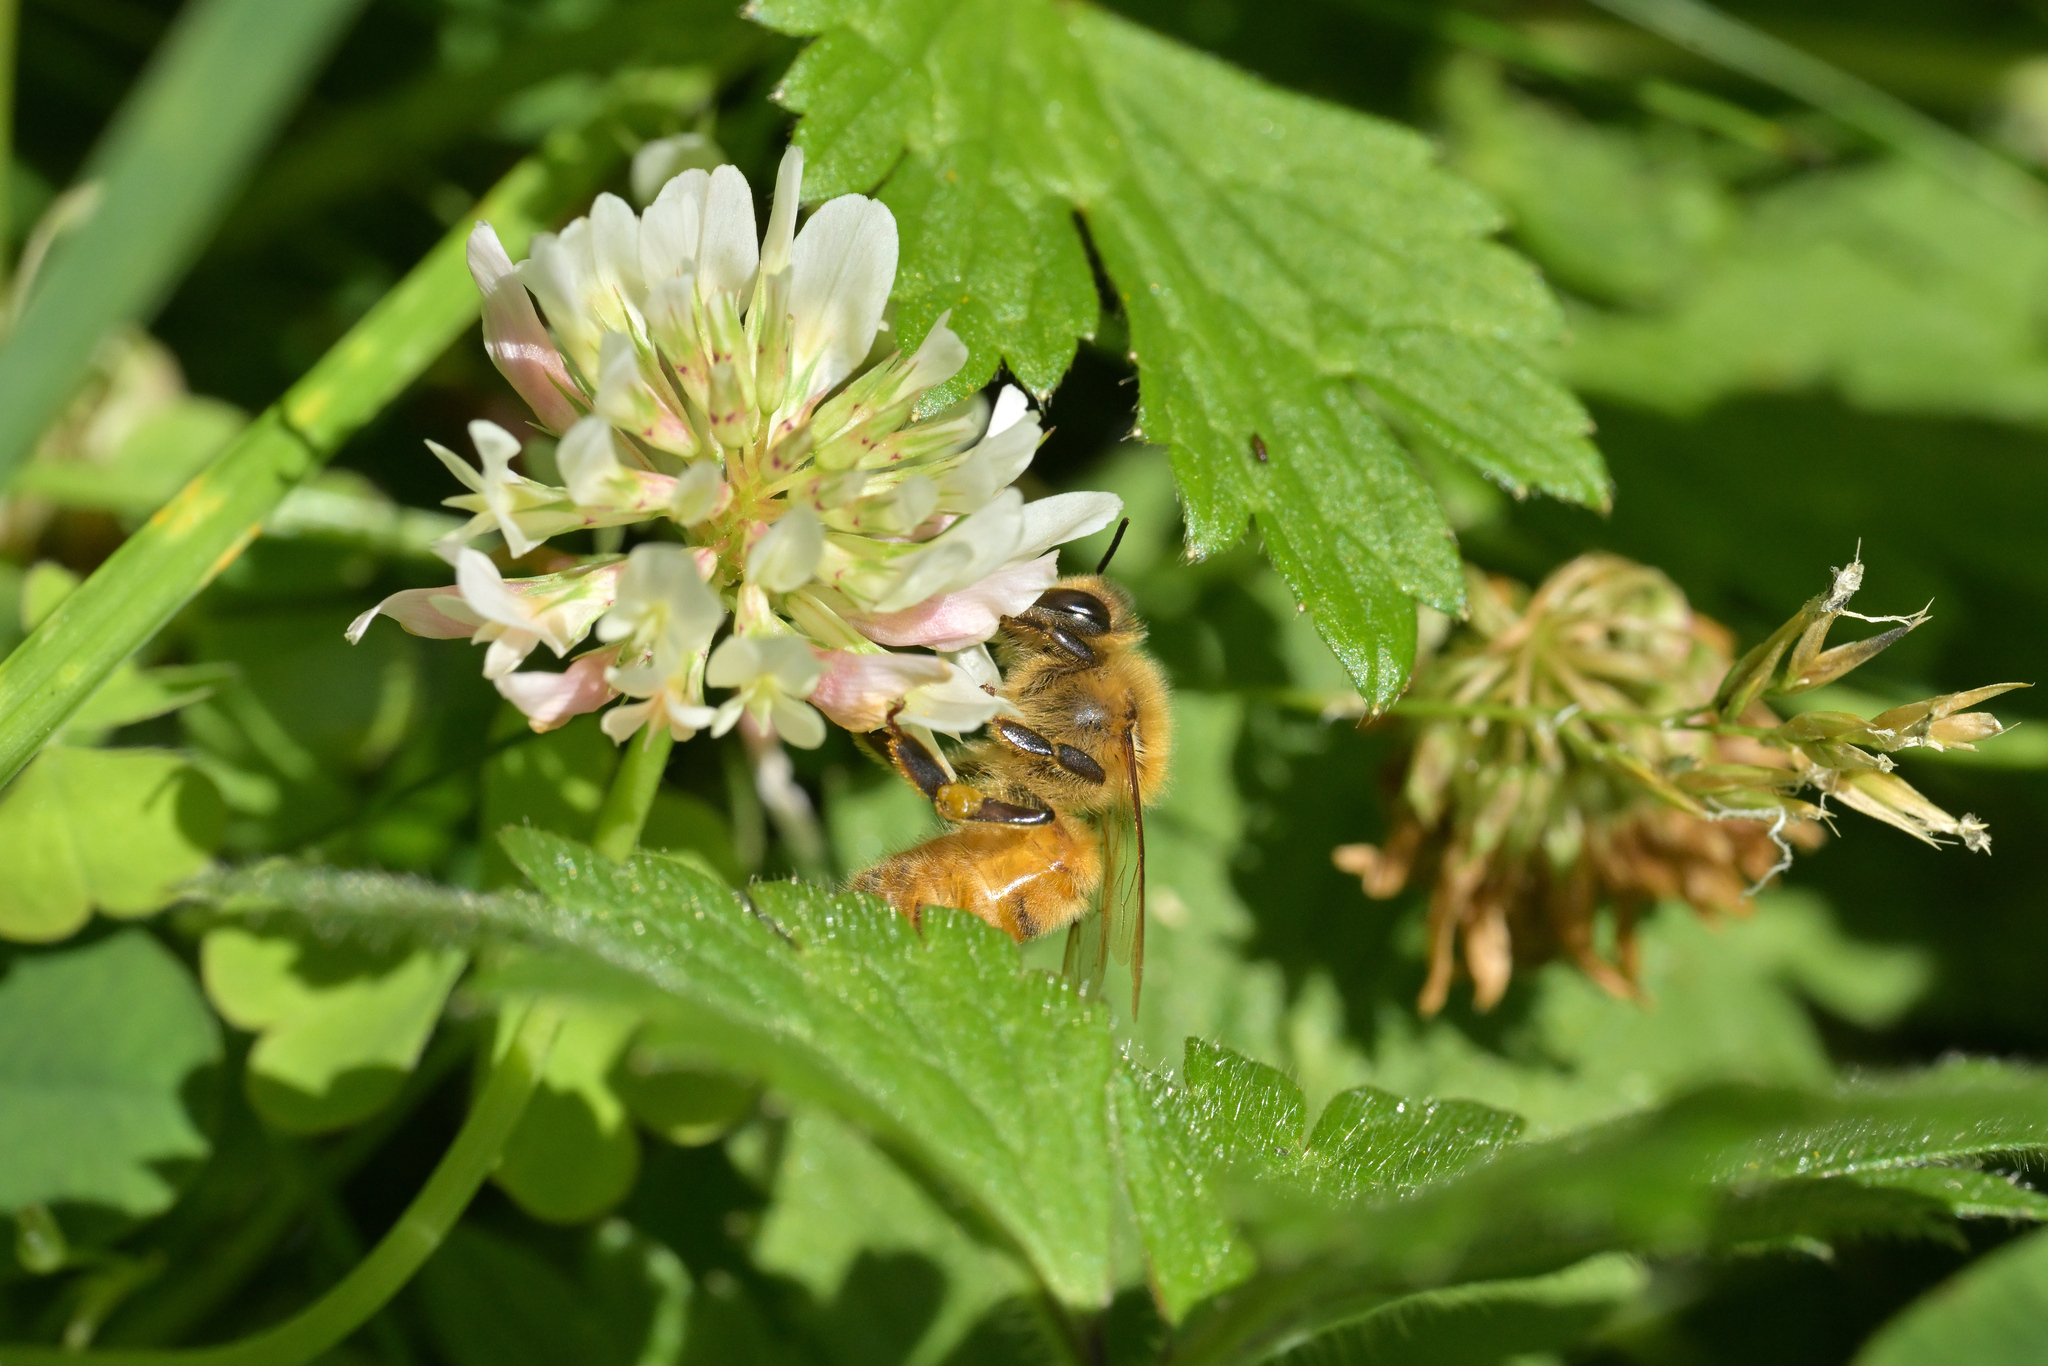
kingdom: Animalia
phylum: Arthropoda
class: Insecta
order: Hymenoptera
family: Apidae
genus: Apis
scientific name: Apis mellifera
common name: Honey bee
